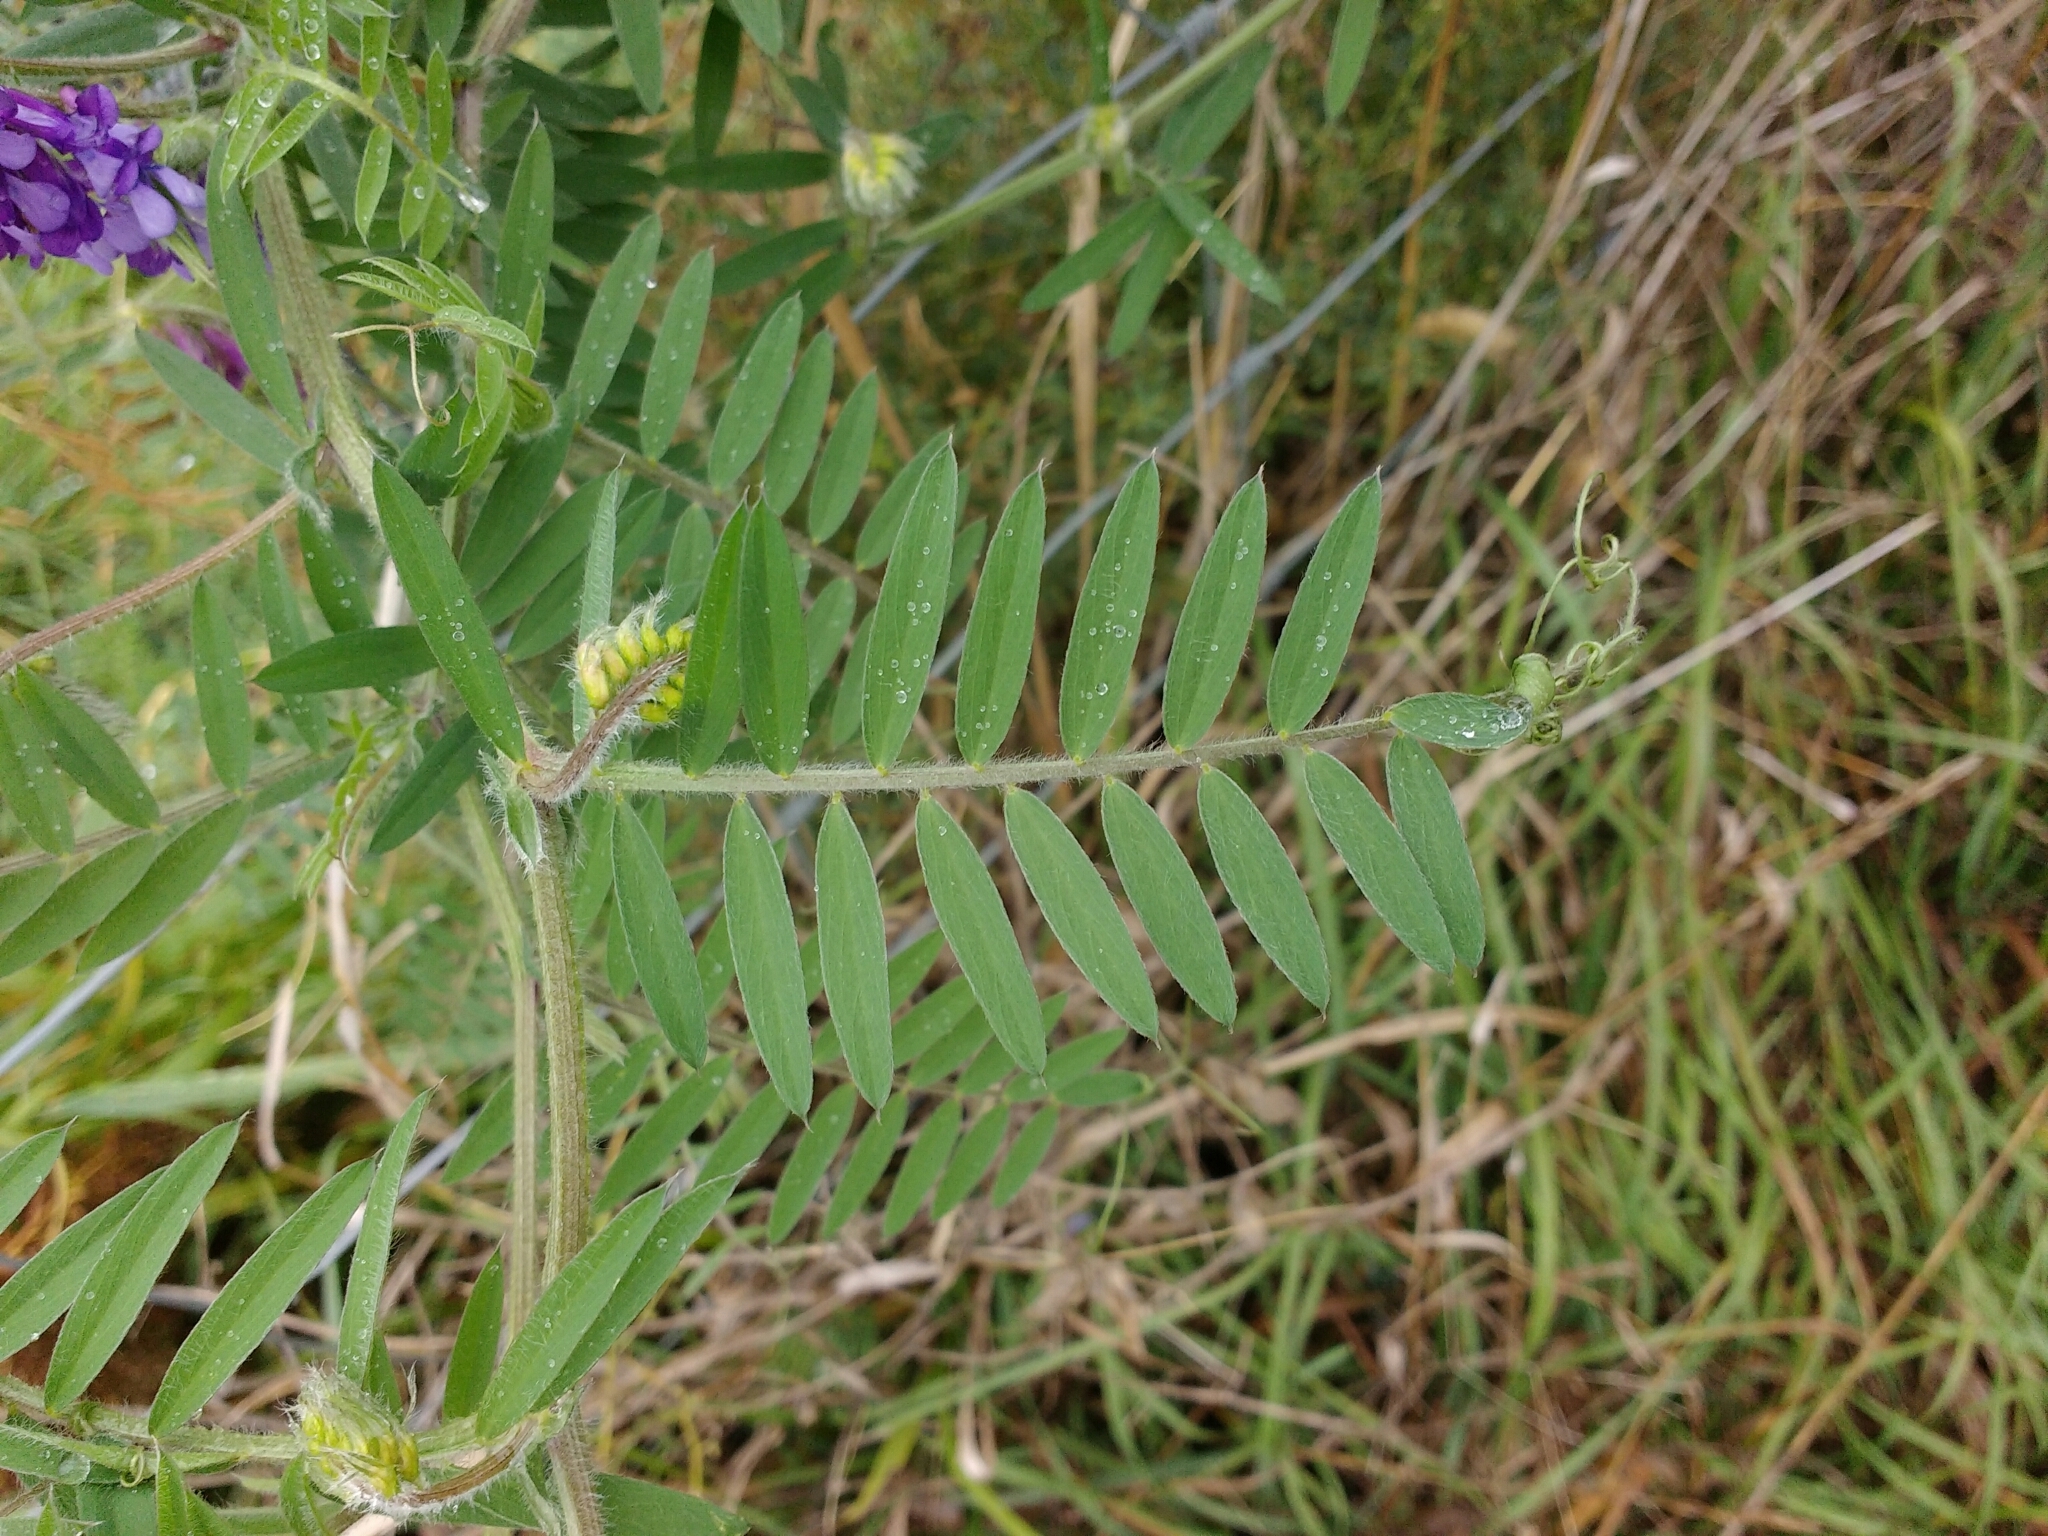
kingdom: Plantae
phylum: Tracheophyta
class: Magnoliopsida
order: Fabales
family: Fabaceae
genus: Vicia
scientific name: Vicia villosa
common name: Fodder vetch
